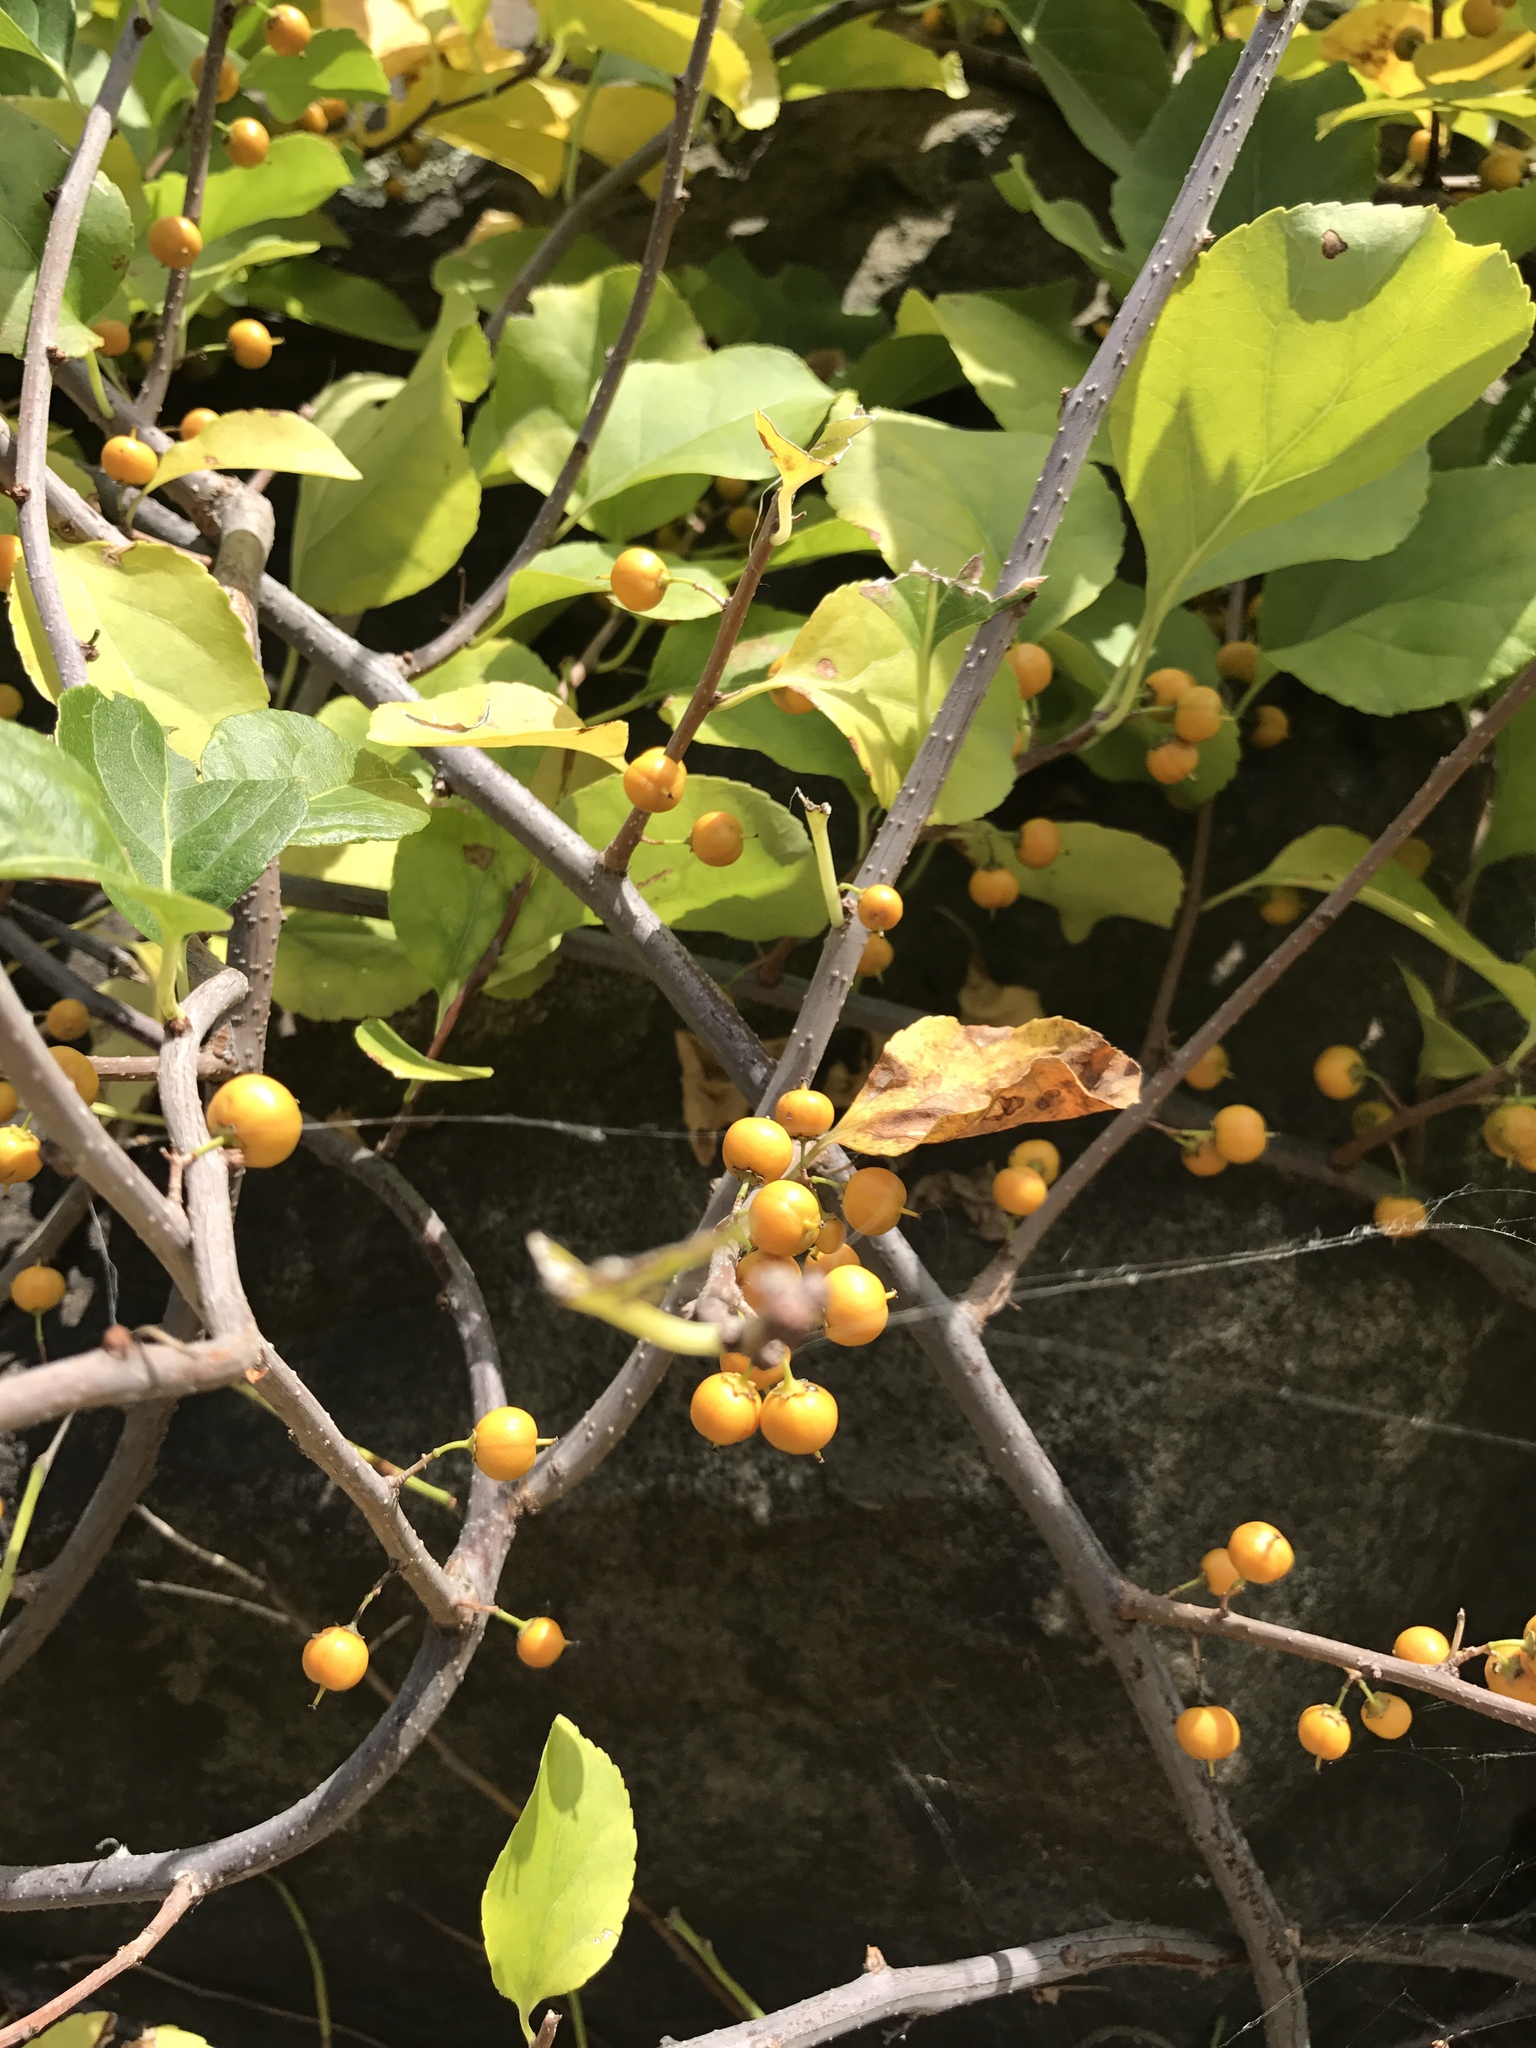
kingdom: Plantae
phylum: Tracheophyta
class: Magnoliopsida
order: Celastrales
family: Celastraceae
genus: Celastrus
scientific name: Celastrus orbiculatus
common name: Oriental bittersweet
